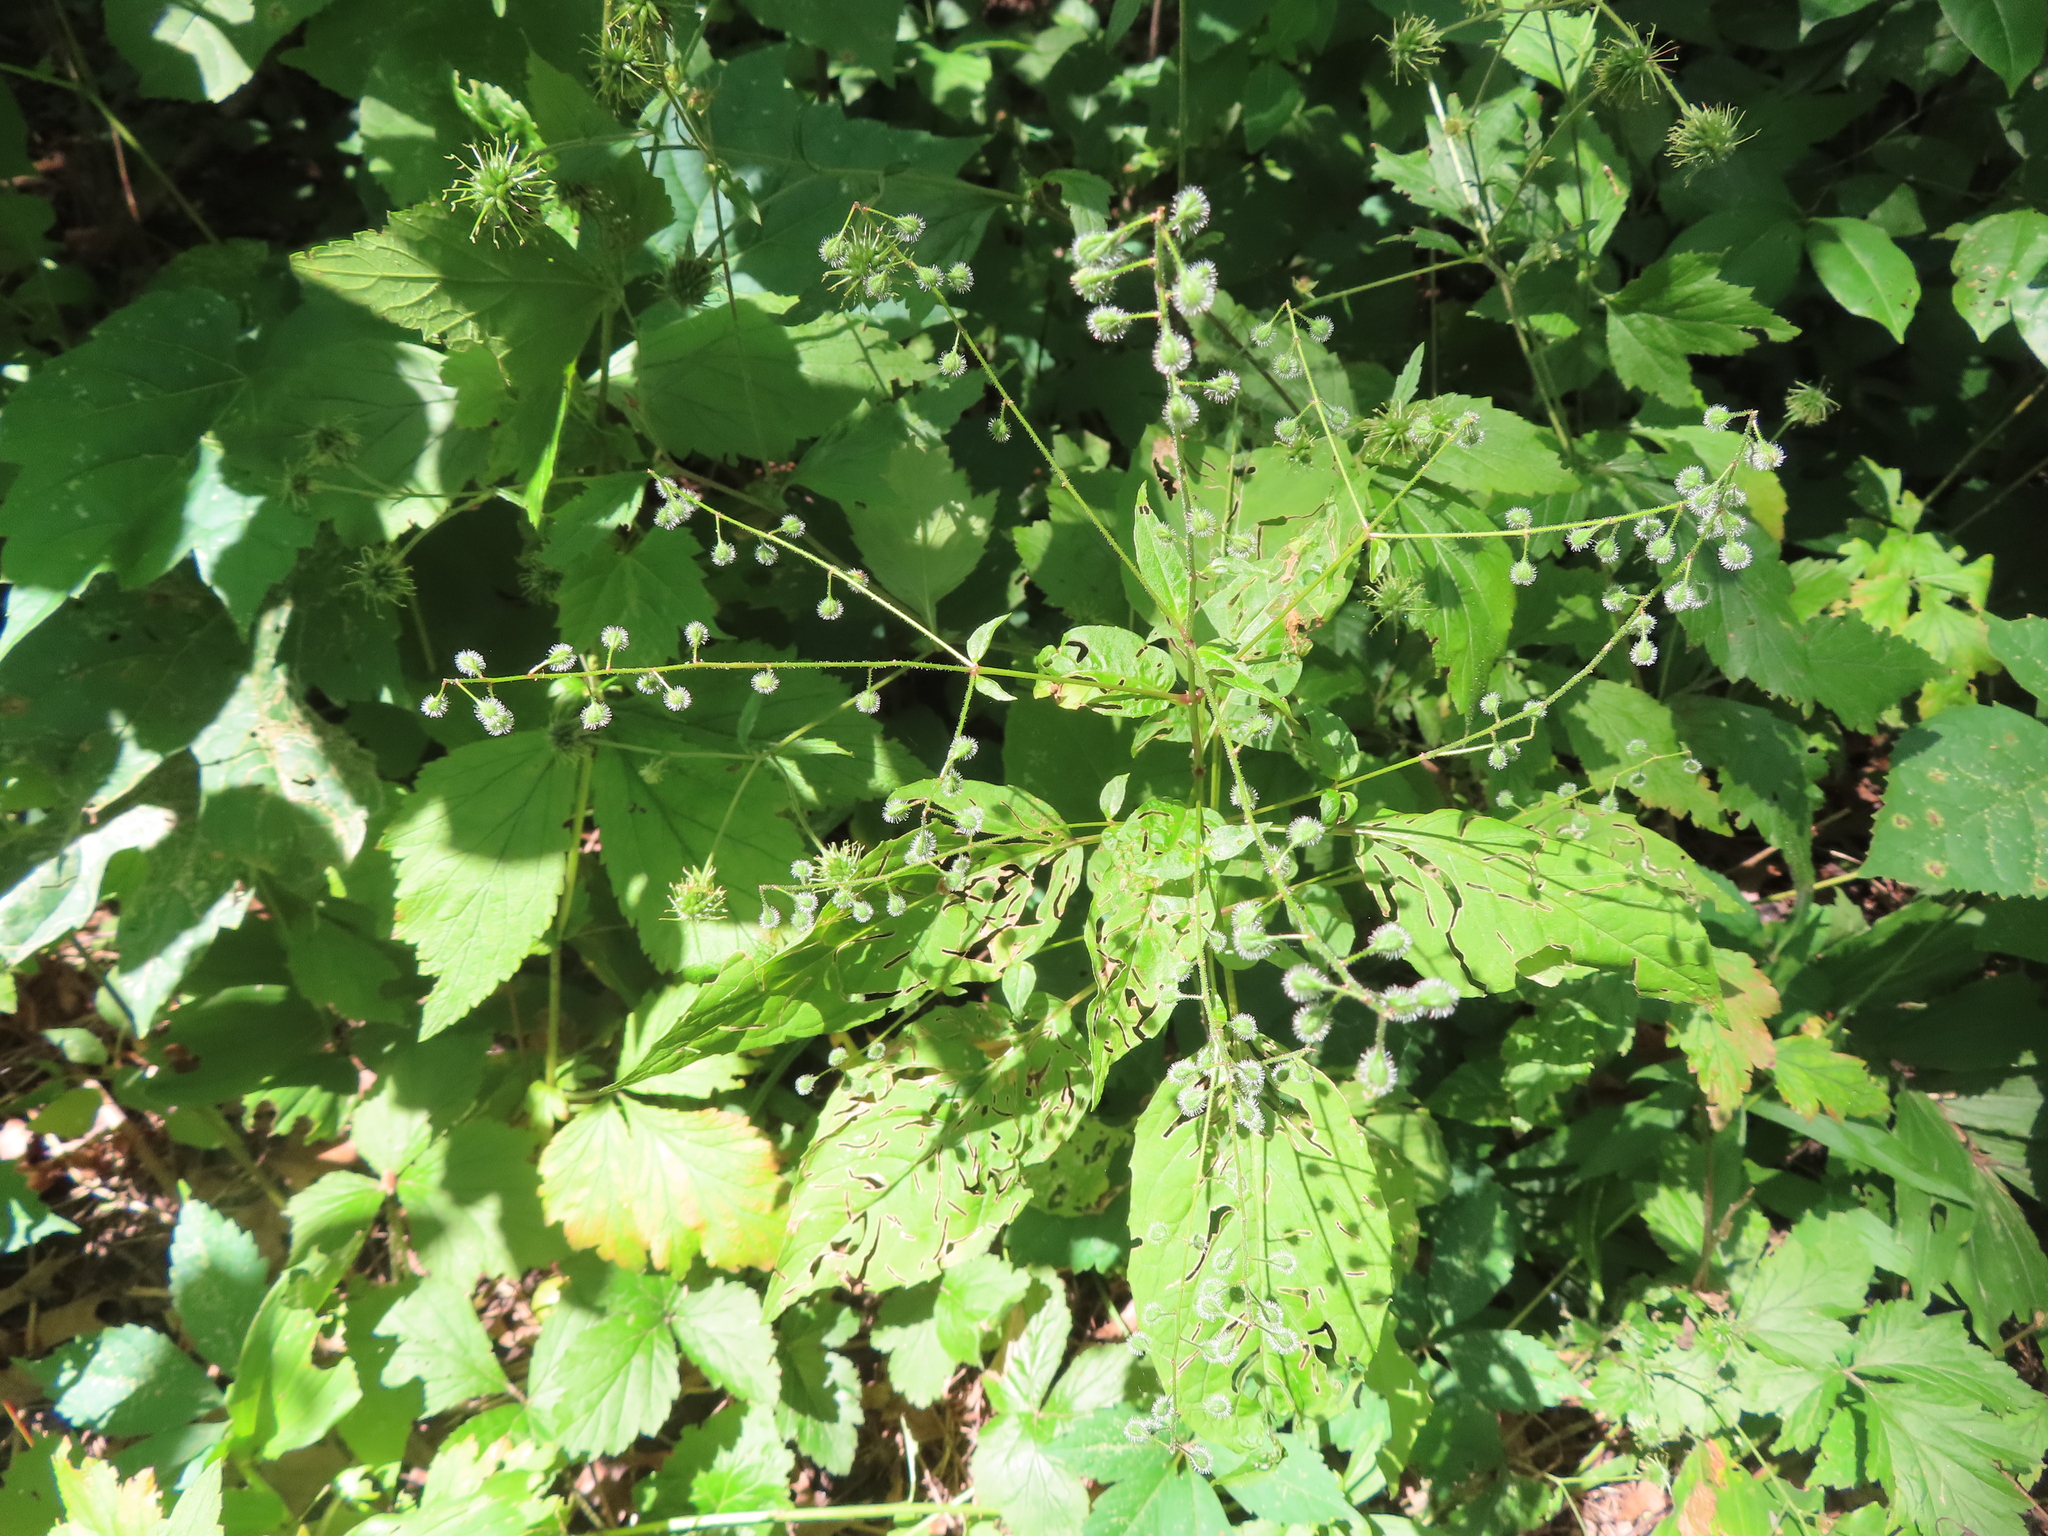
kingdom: Plantae
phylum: Tracheophyta
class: Magnoliopsida
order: Myrtales
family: Onagraceae
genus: Circaea
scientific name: Circaea canadensis
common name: Broad-leaved enchanter's nightshade
